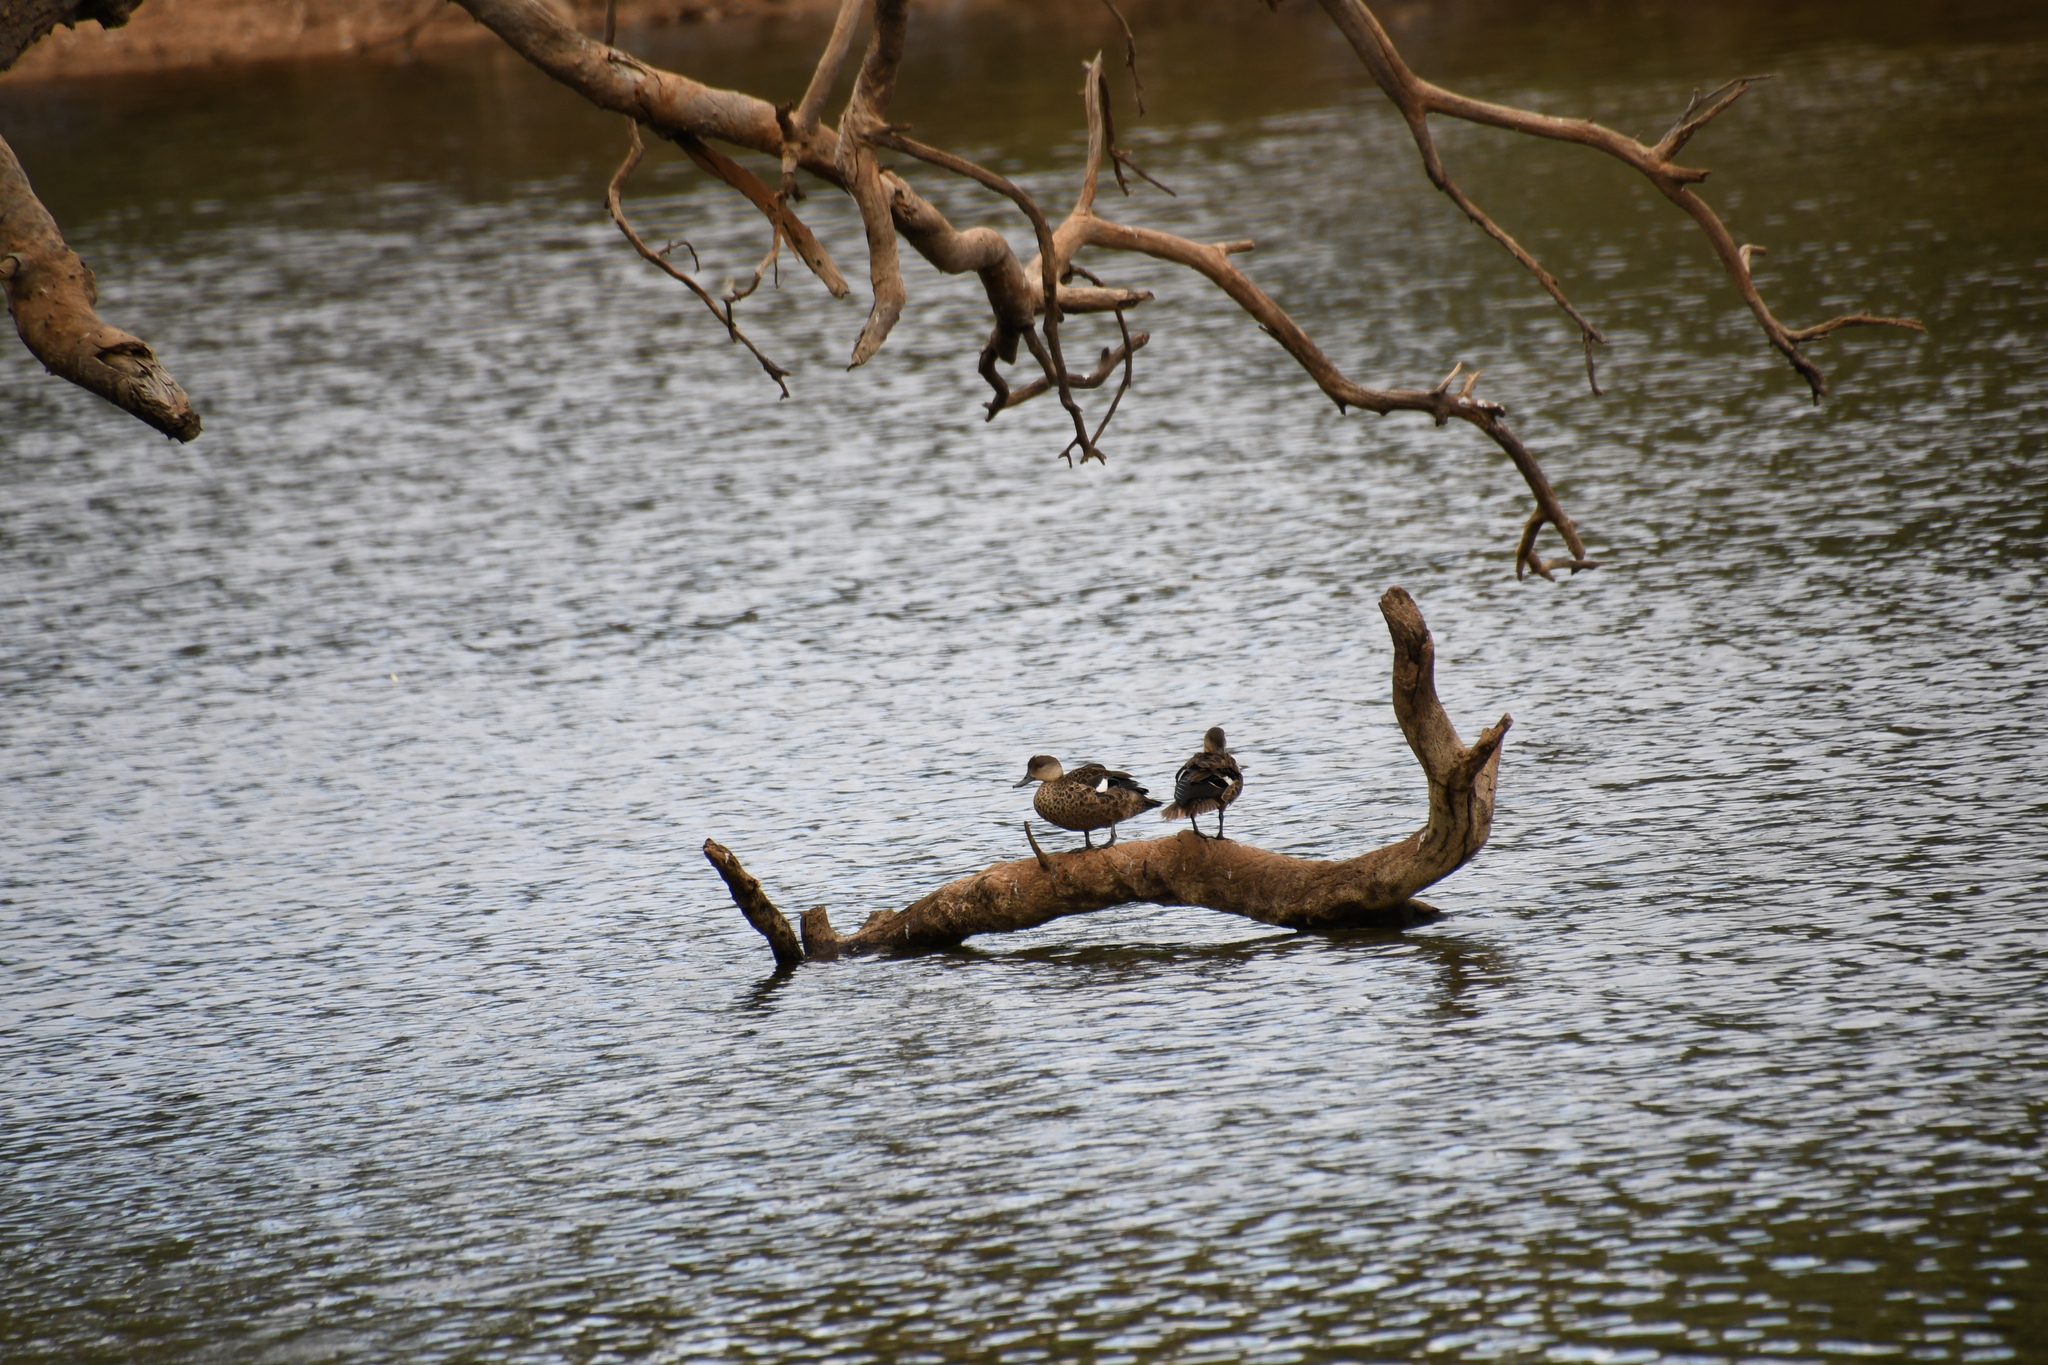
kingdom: Animalia
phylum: Chordata
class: Aves
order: Anseriformes
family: Anatidae
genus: Anas
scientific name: Anas gracilis
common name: Grey teal
